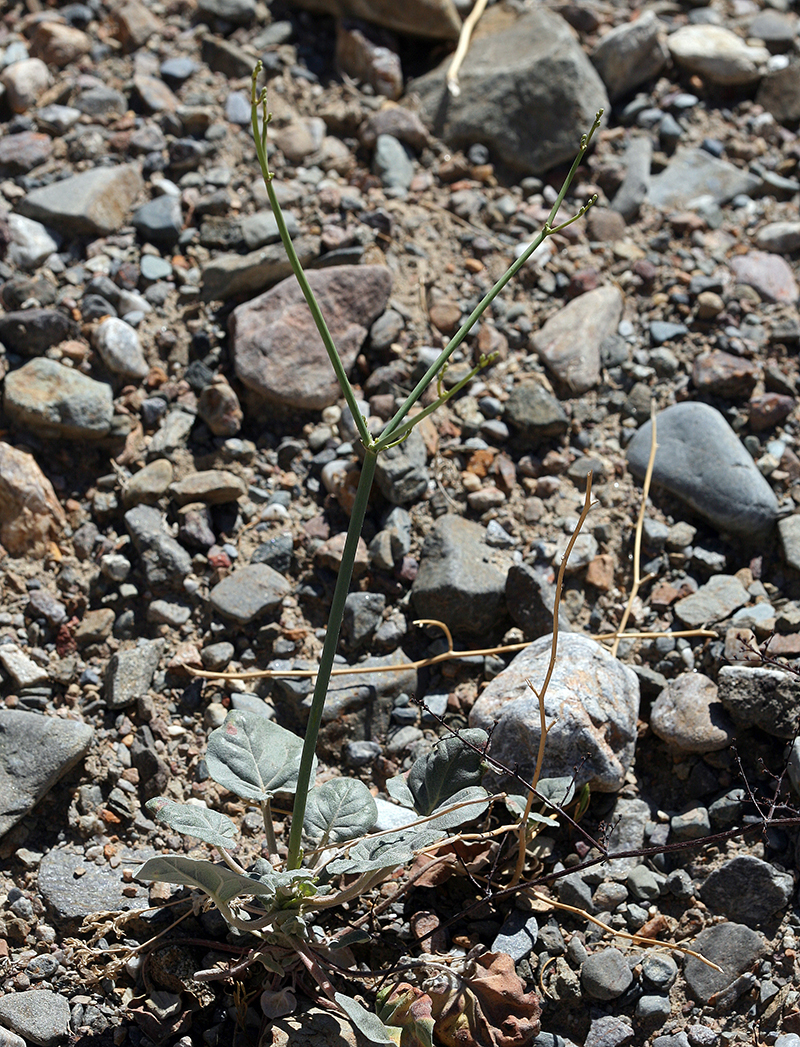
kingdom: Plantae
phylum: Tracheophyta
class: Magnoliopsida
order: Caryophyllales
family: Polygonaceae
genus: Eriogonum
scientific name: Eriogonum hoffmannii
